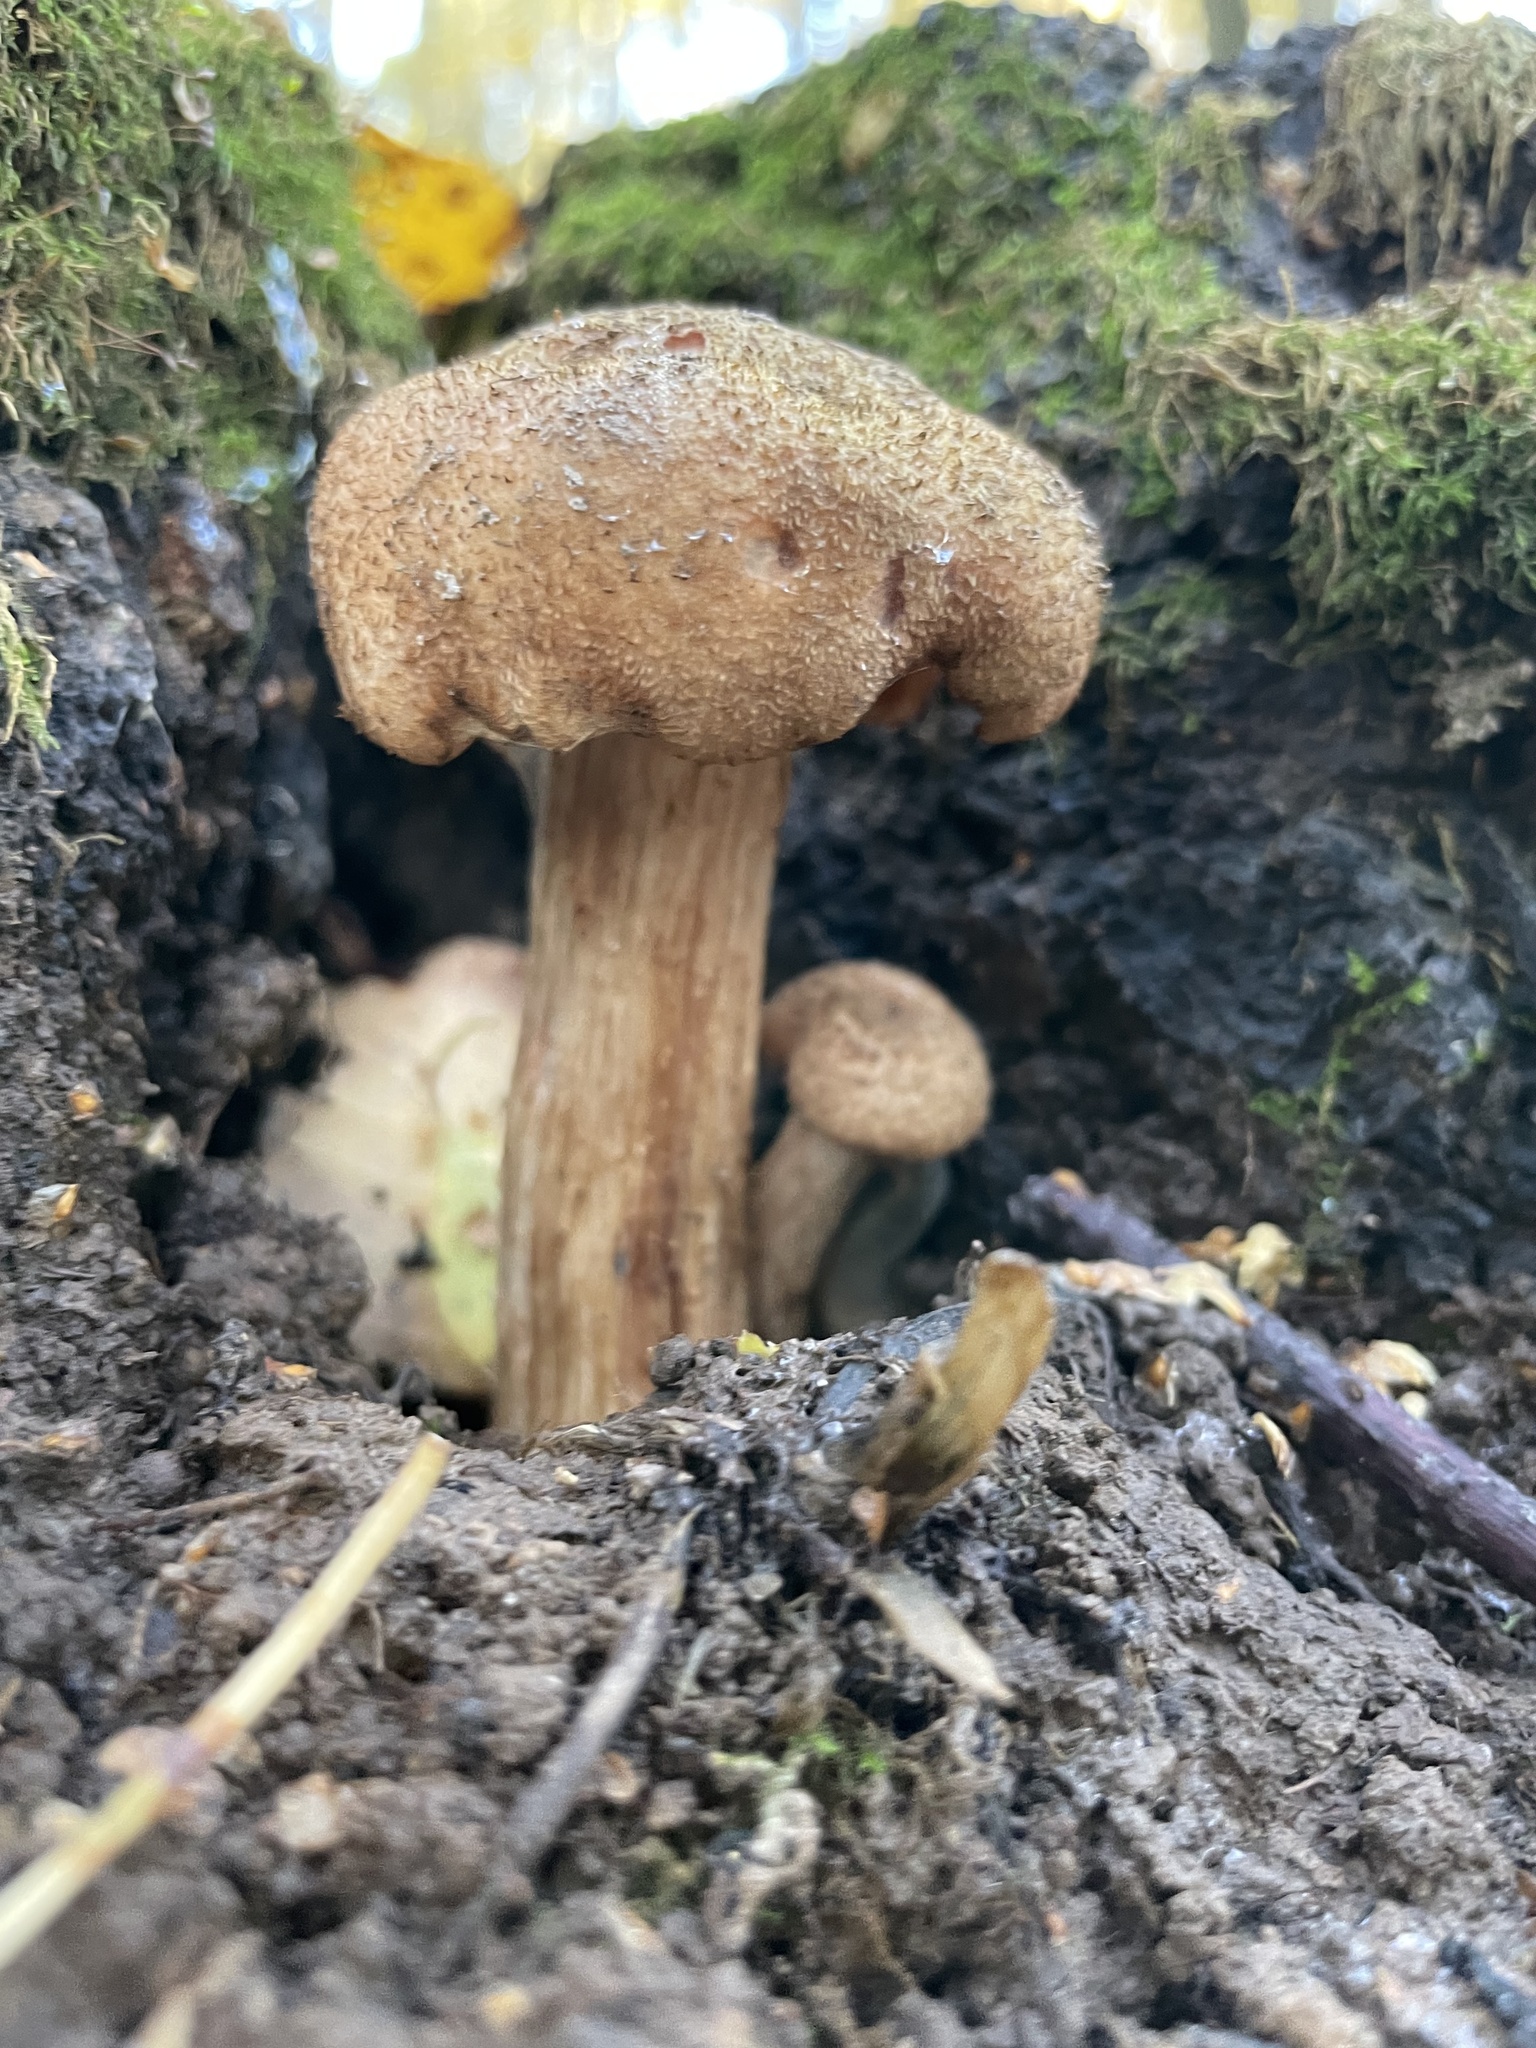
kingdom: Fungi
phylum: Basidiomycota
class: Agaricomycetes
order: Agaricales
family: Physalacriaceae
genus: Armillaria
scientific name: Armillaria gallica
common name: Bulbous honey fungus
